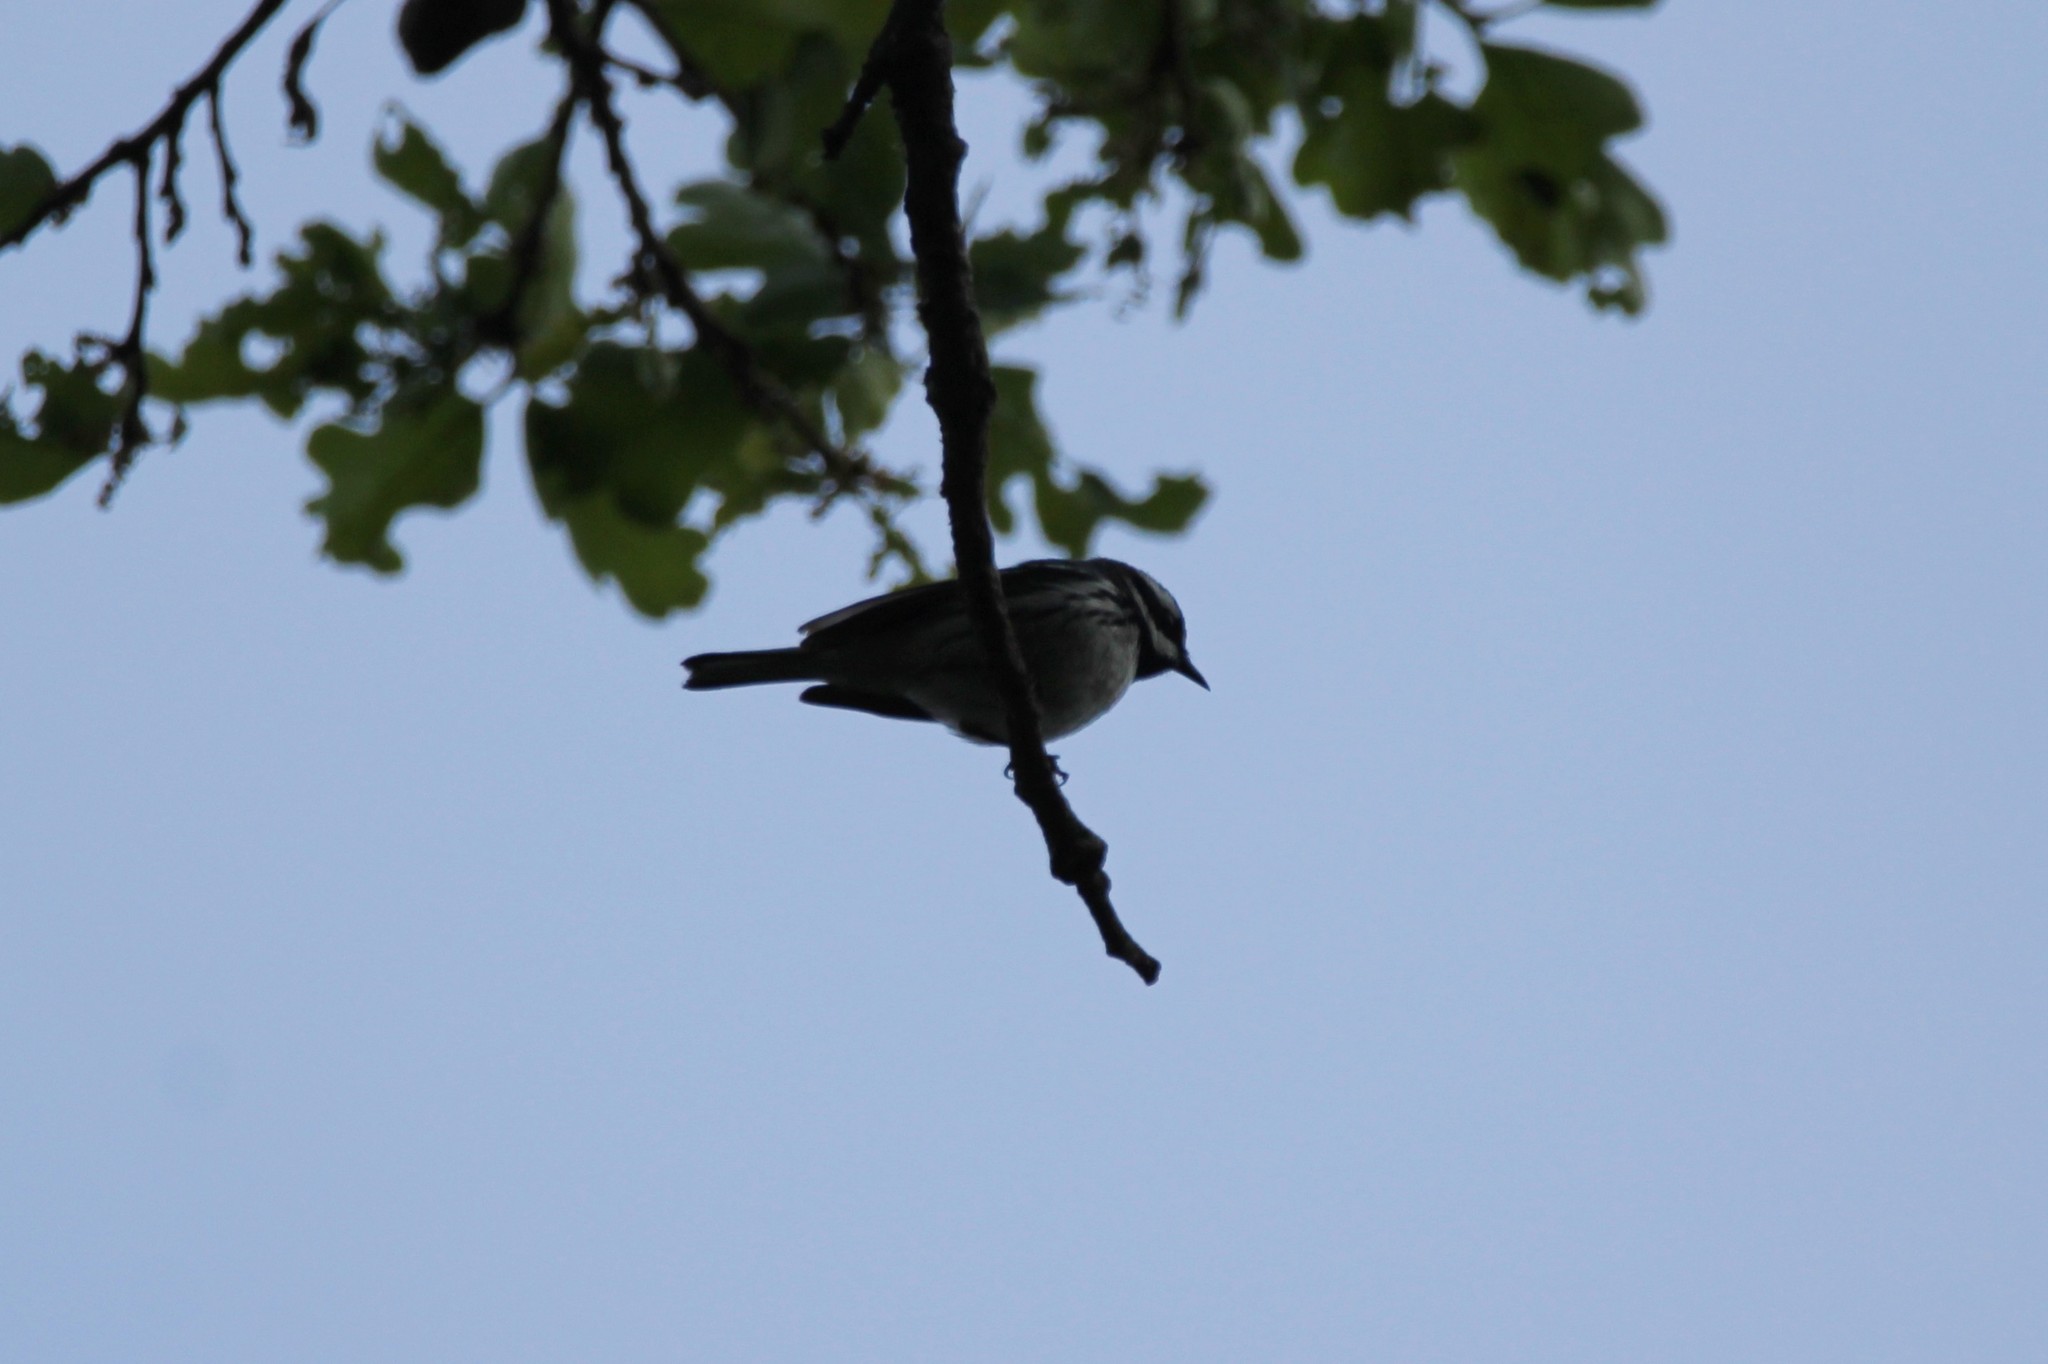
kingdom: Animalia
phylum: Chordata
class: Aves
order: Passeriformes
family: Parulidae
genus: Setophaga
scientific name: Setophaga nigrescens
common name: Black-throated gray warbler
